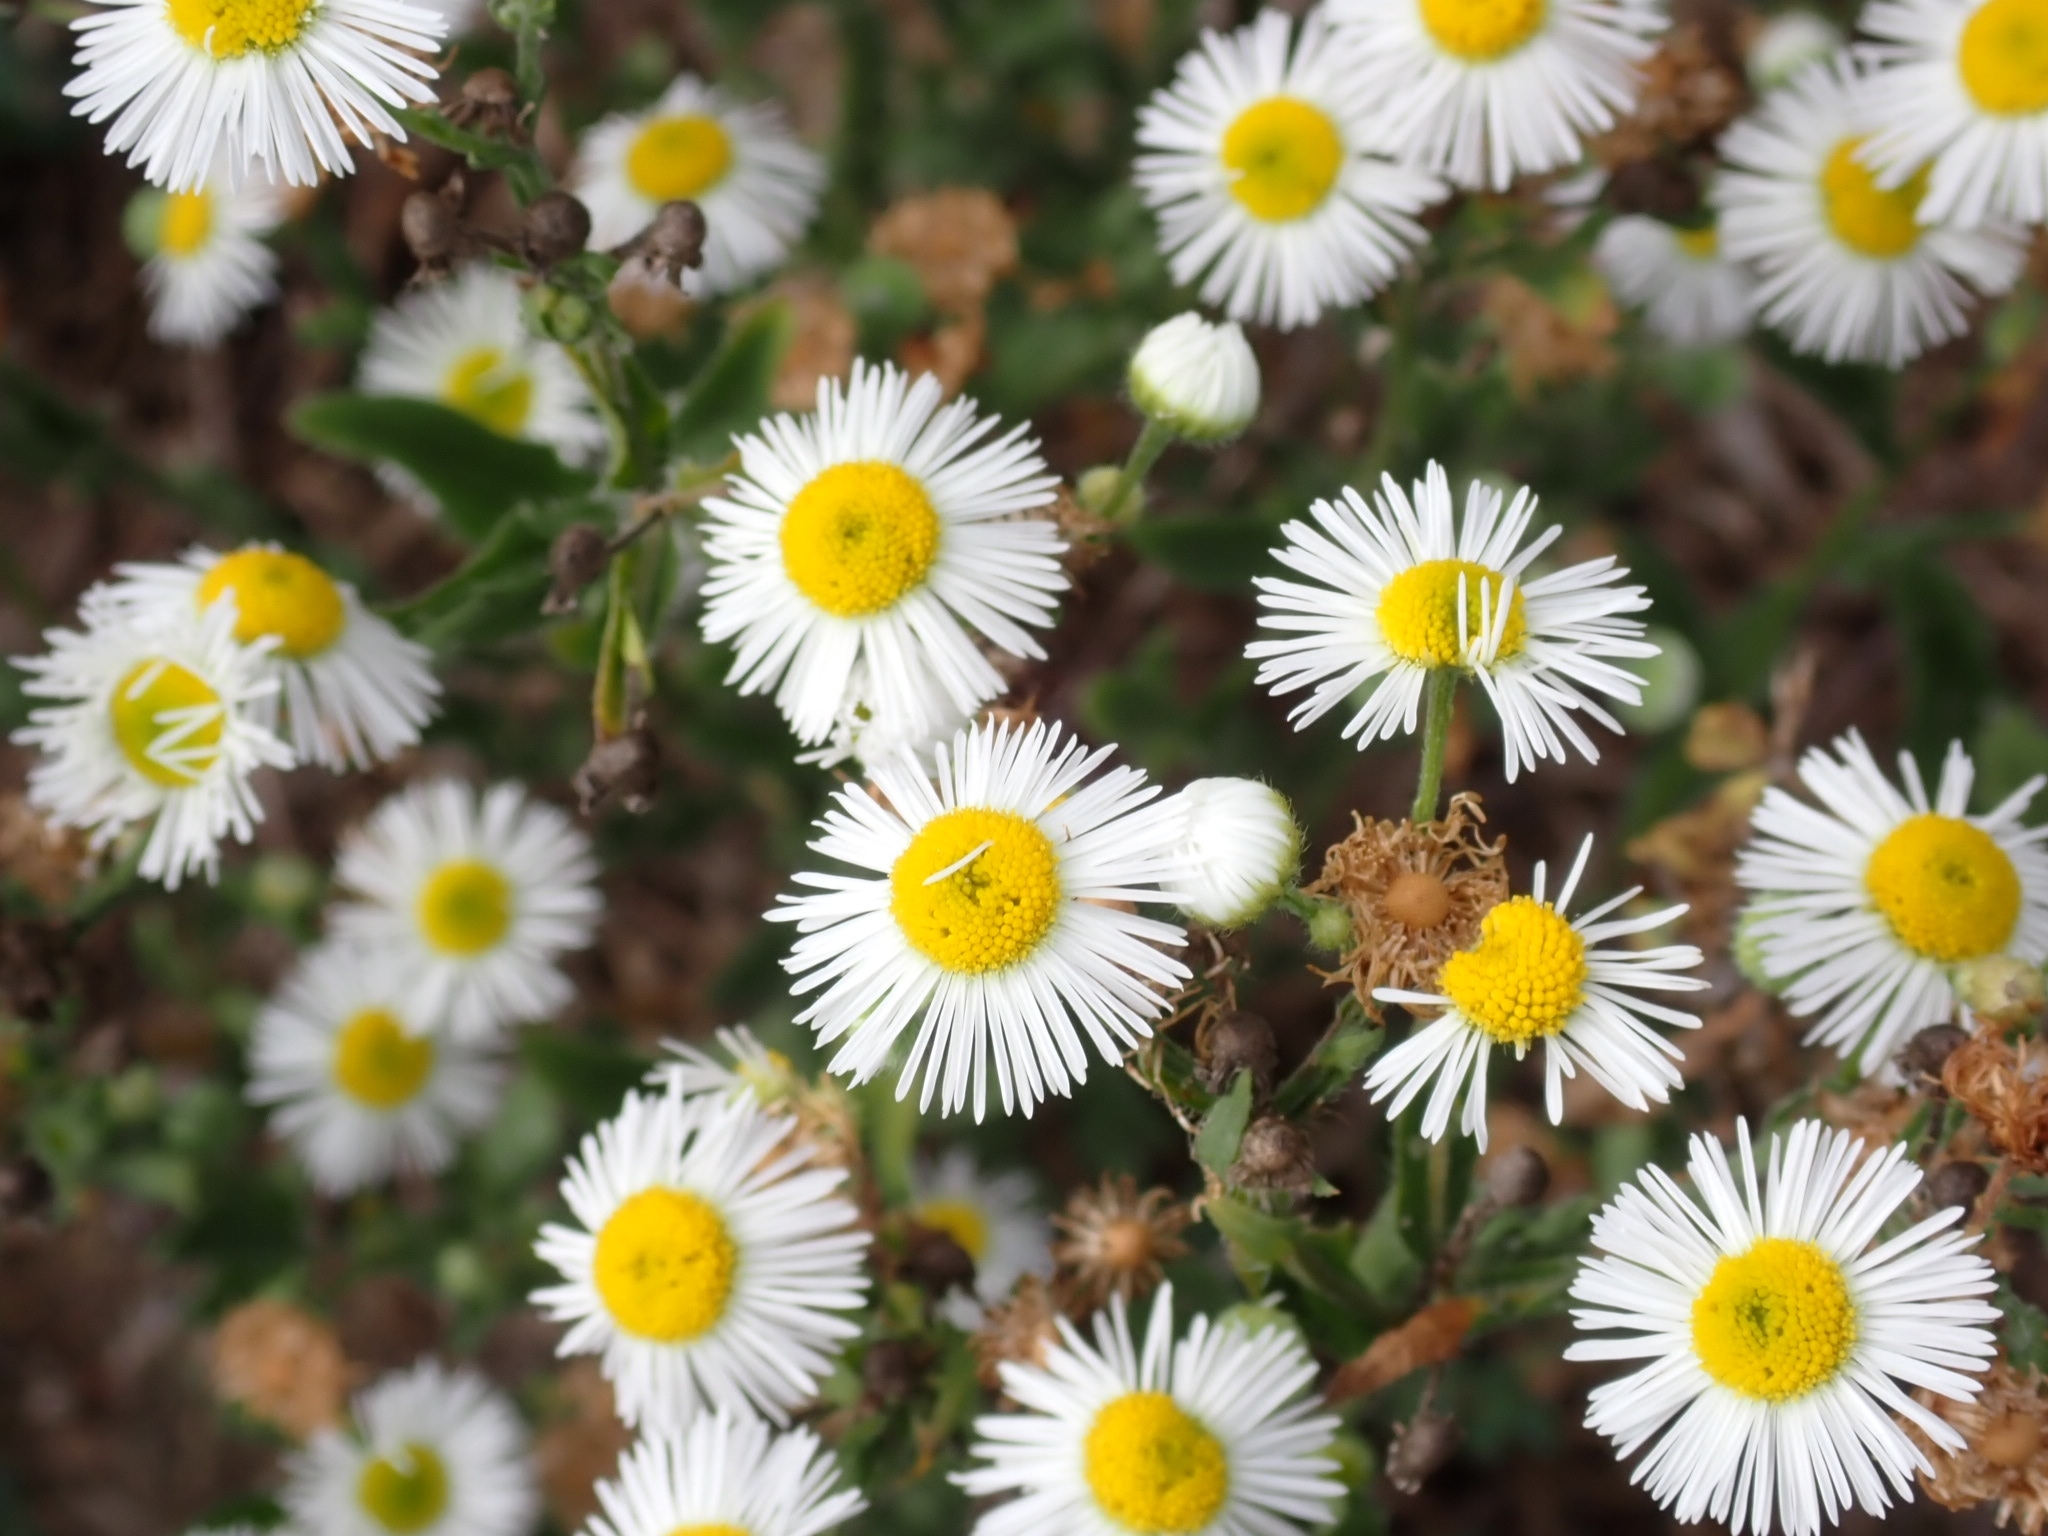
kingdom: Plantae
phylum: Tracheophyta
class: Magnoliopsida
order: Asterales
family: Asteraceae
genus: Erigeron
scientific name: Erigeron annuus
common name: Tall fleabane
